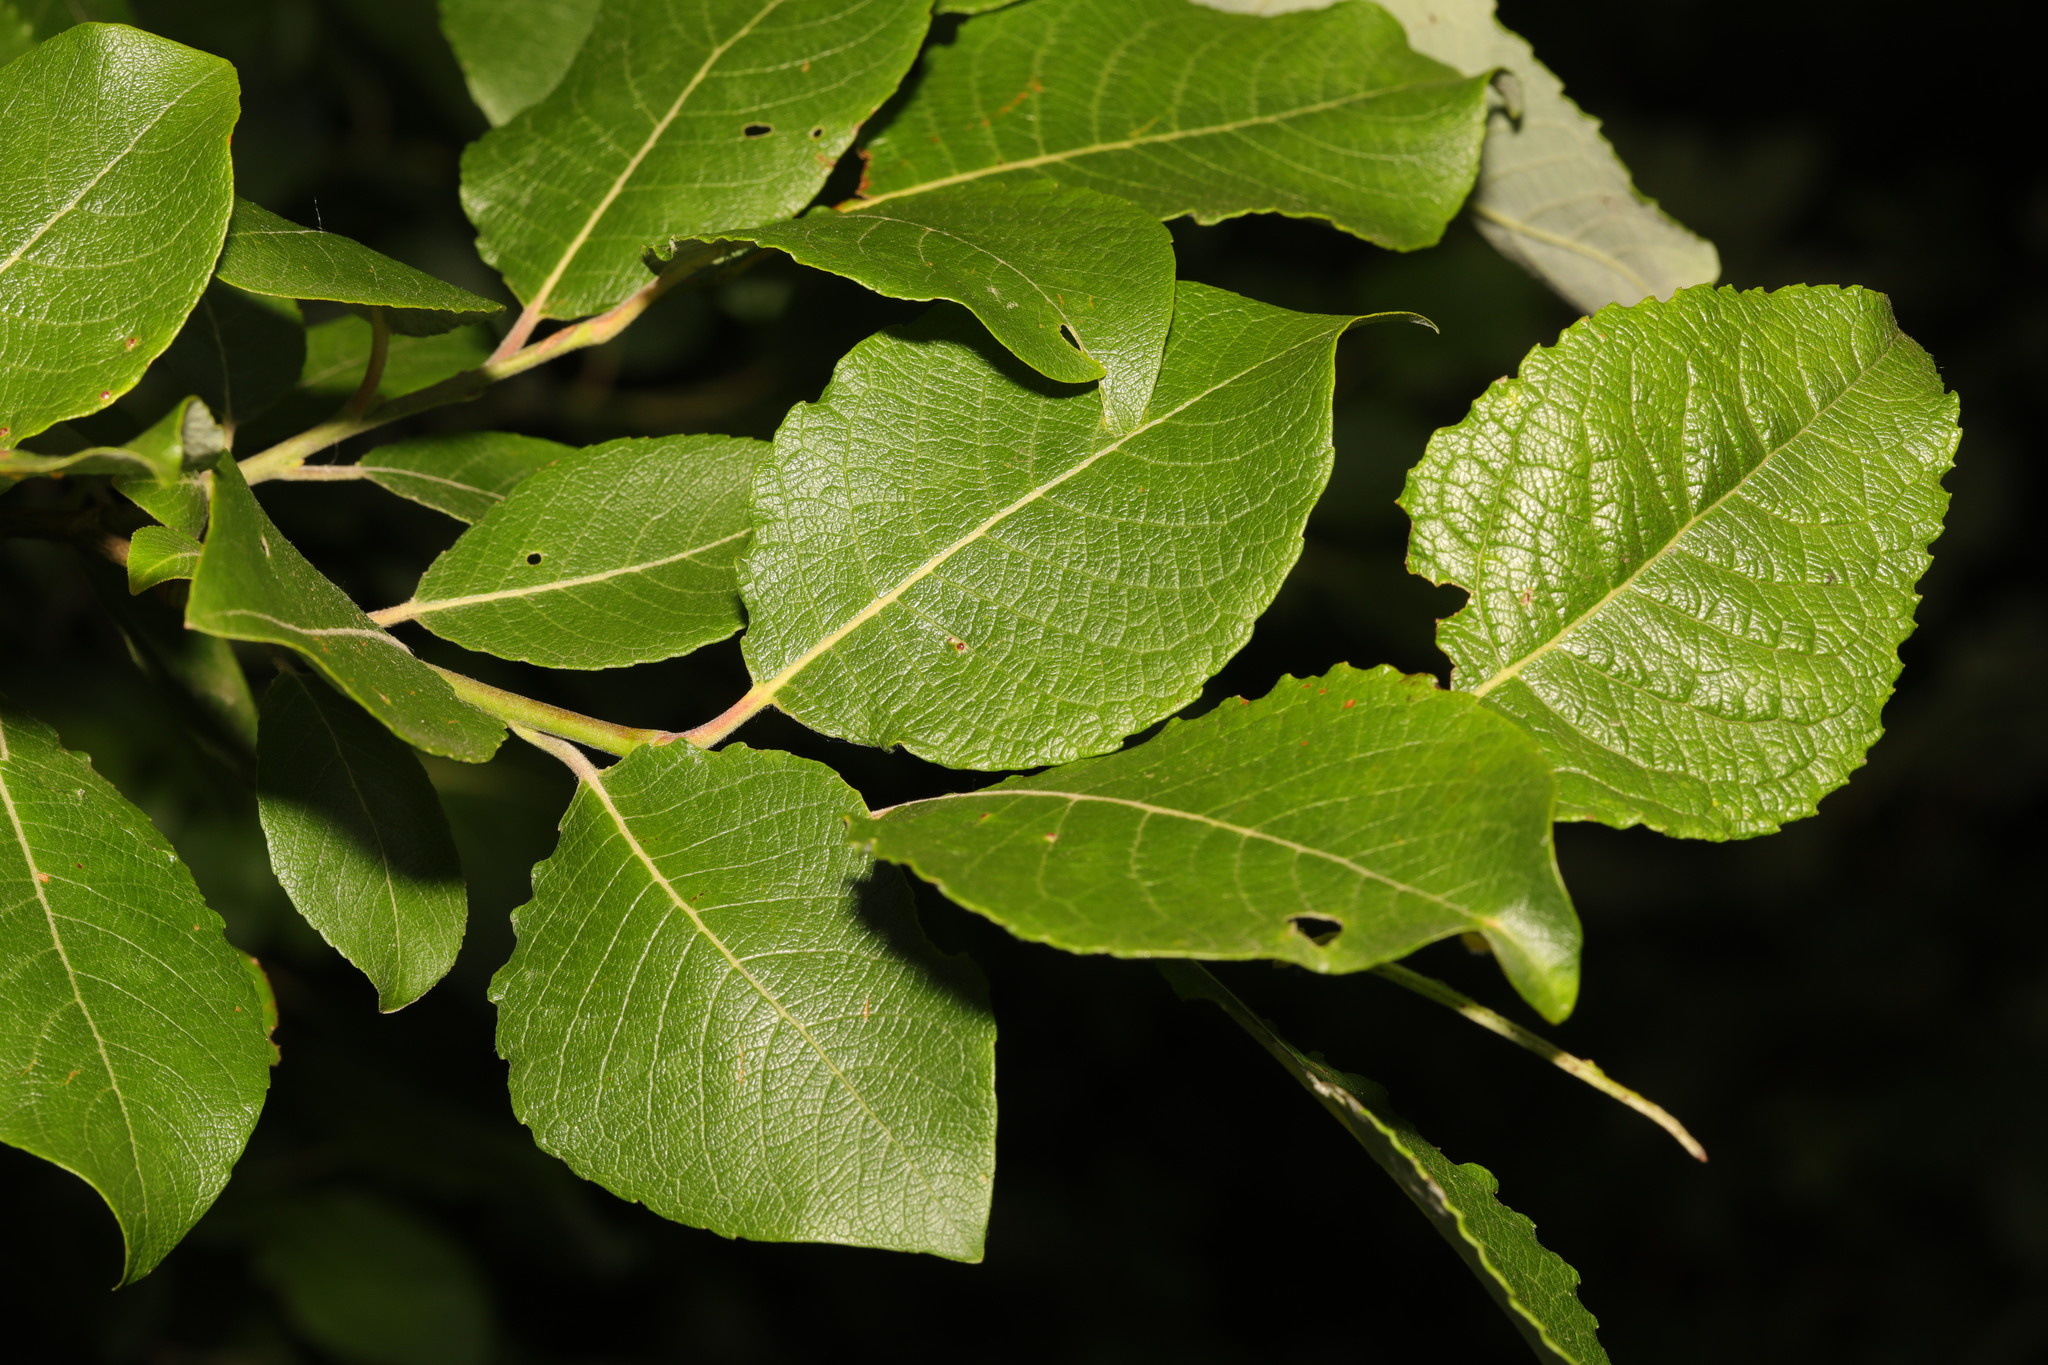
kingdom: Plantae
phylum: Tracheophyta
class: Magnoliopsida
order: Malpighiales
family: Salicaceae
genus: Salix
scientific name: Salix caprea
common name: Goat willow
